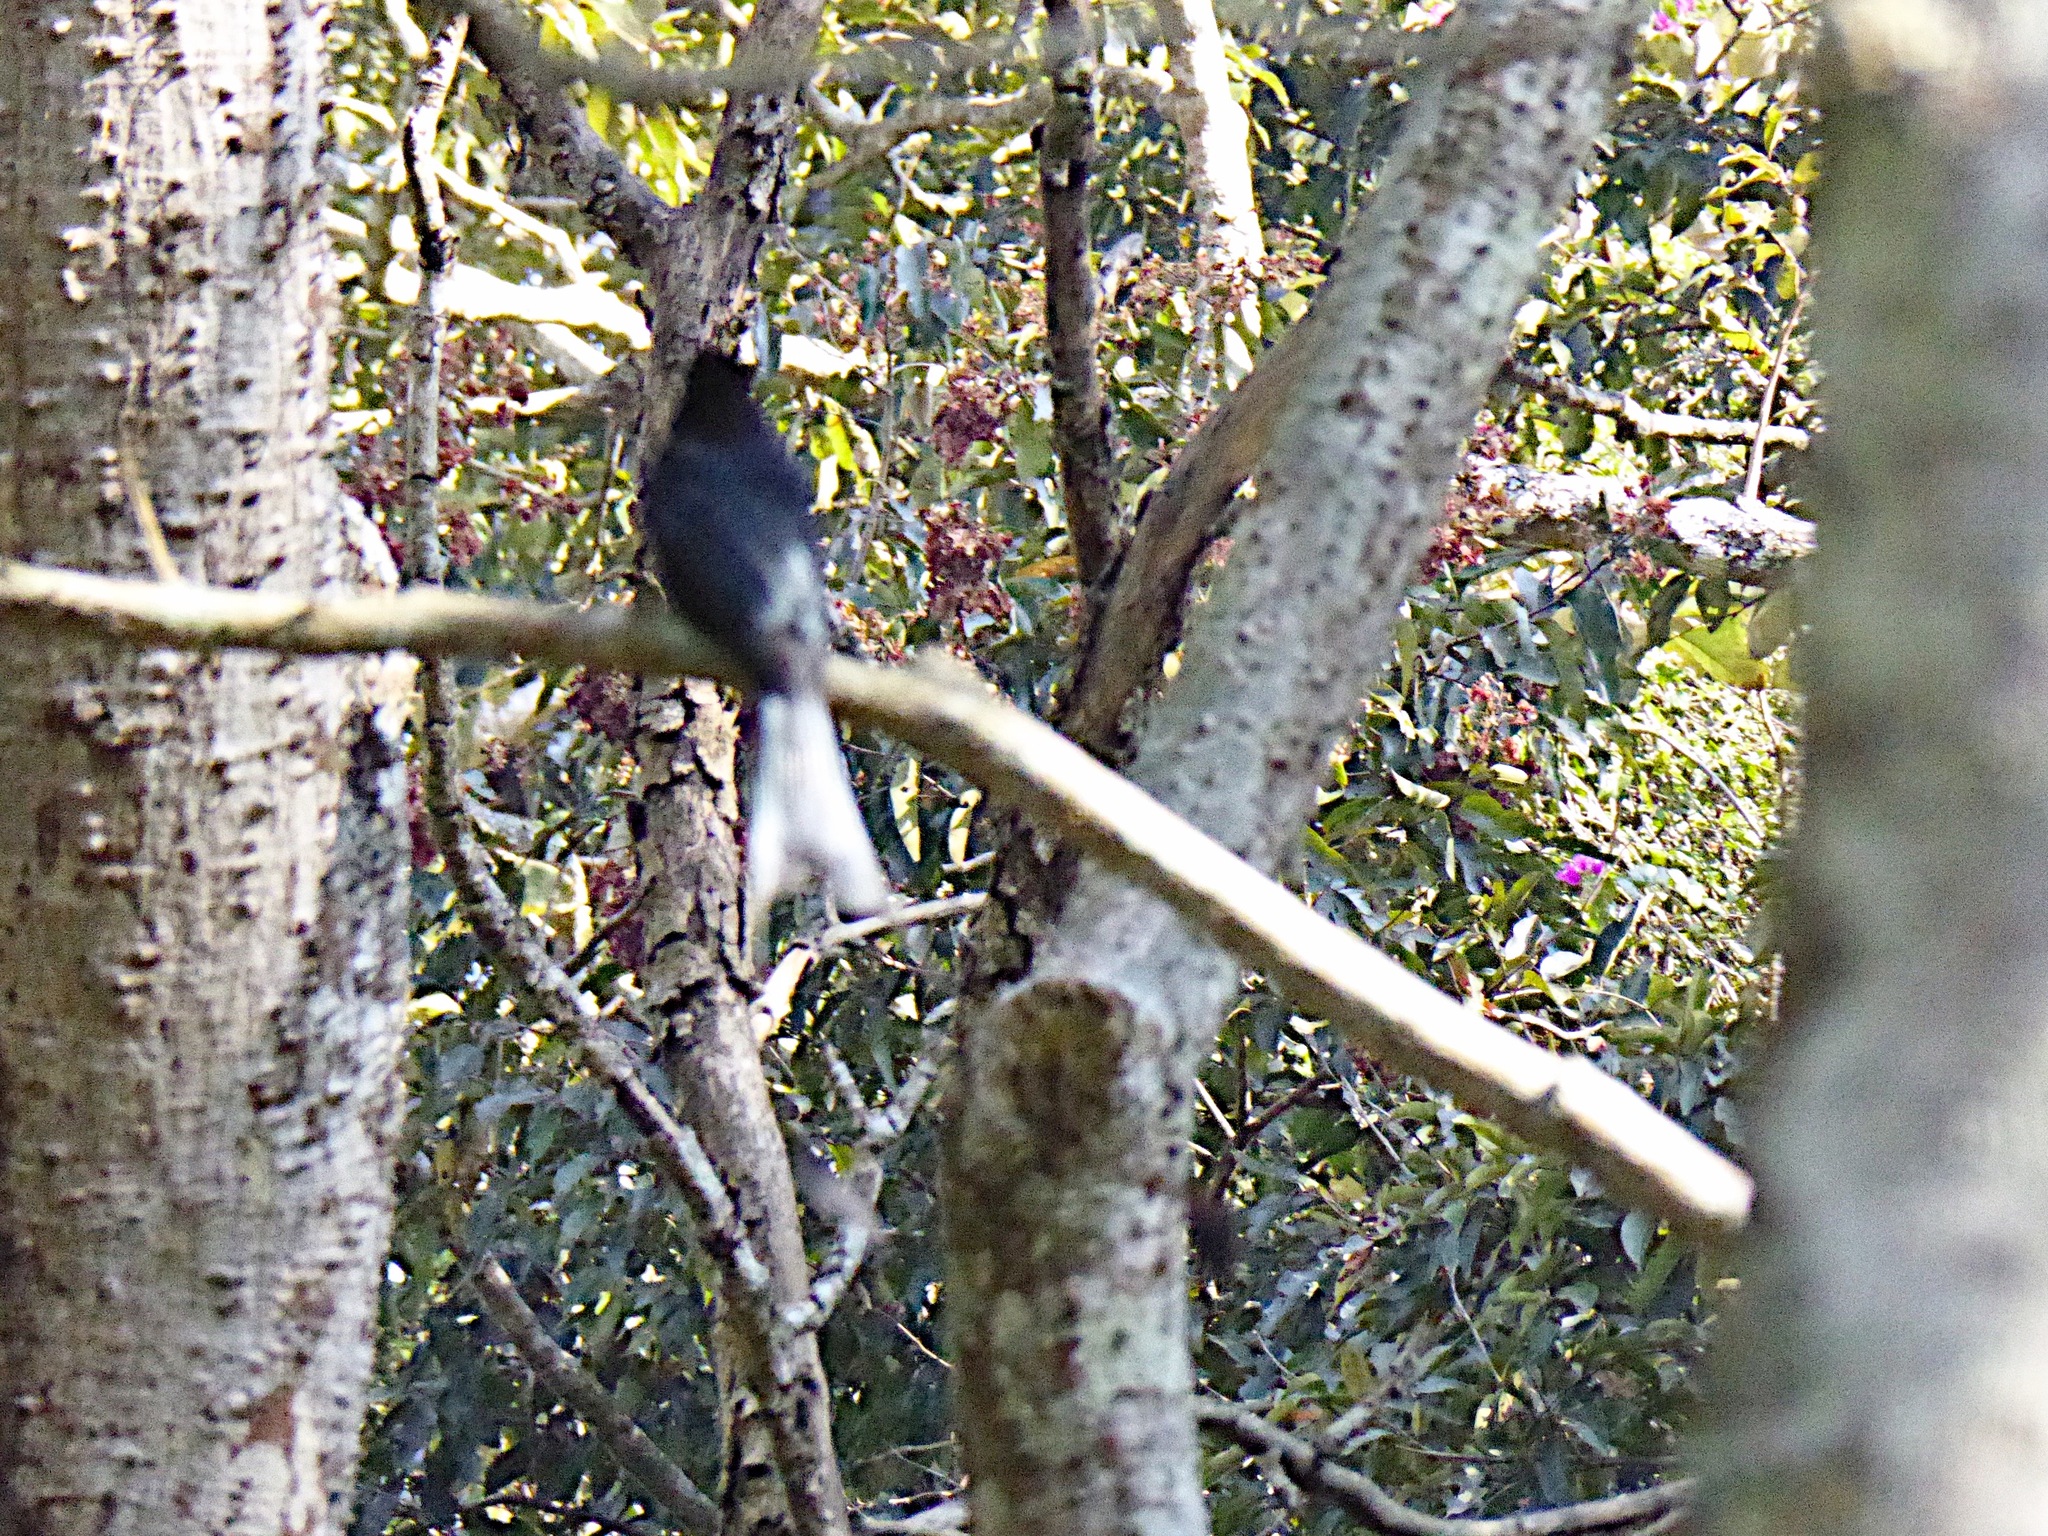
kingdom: Animalia
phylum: Chordata
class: Aves
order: Passeriformes
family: Dicruridae
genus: Dicrurus
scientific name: Dicrurus paradiseus
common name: Greater racket-tailed drongo
